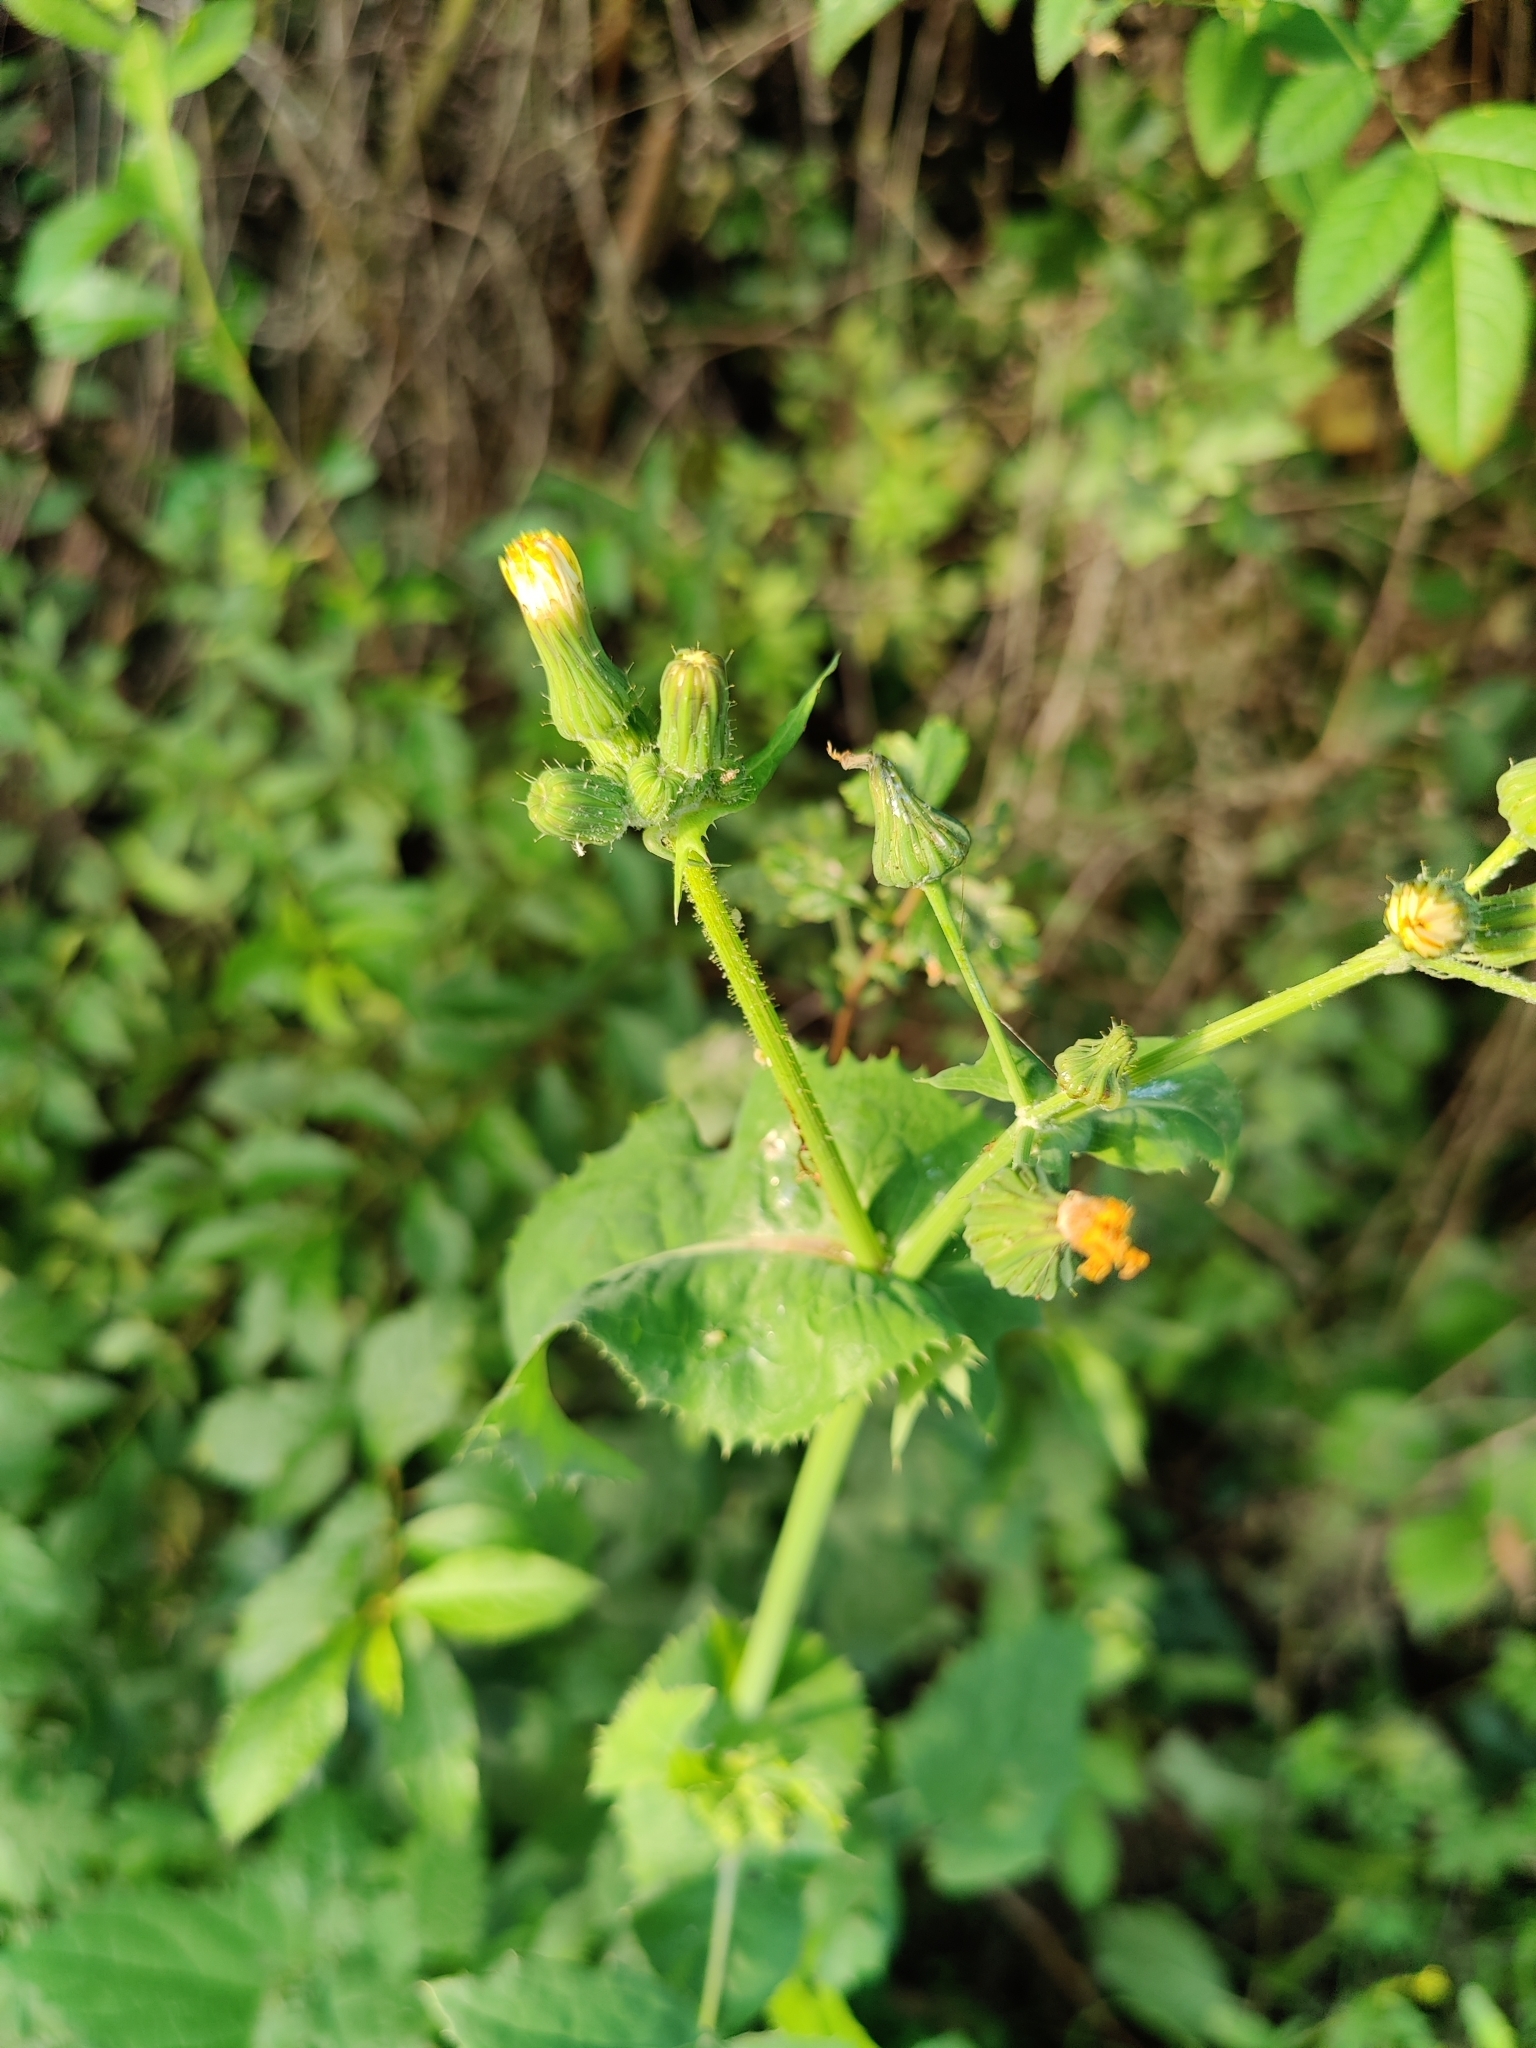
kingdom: Plantae
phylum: Tracheophyta
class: Magnoliopsida
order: Asterales
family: Asteraceae
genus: Sonchus
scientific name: Sonchus oleraceus
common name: Common sowthistle
